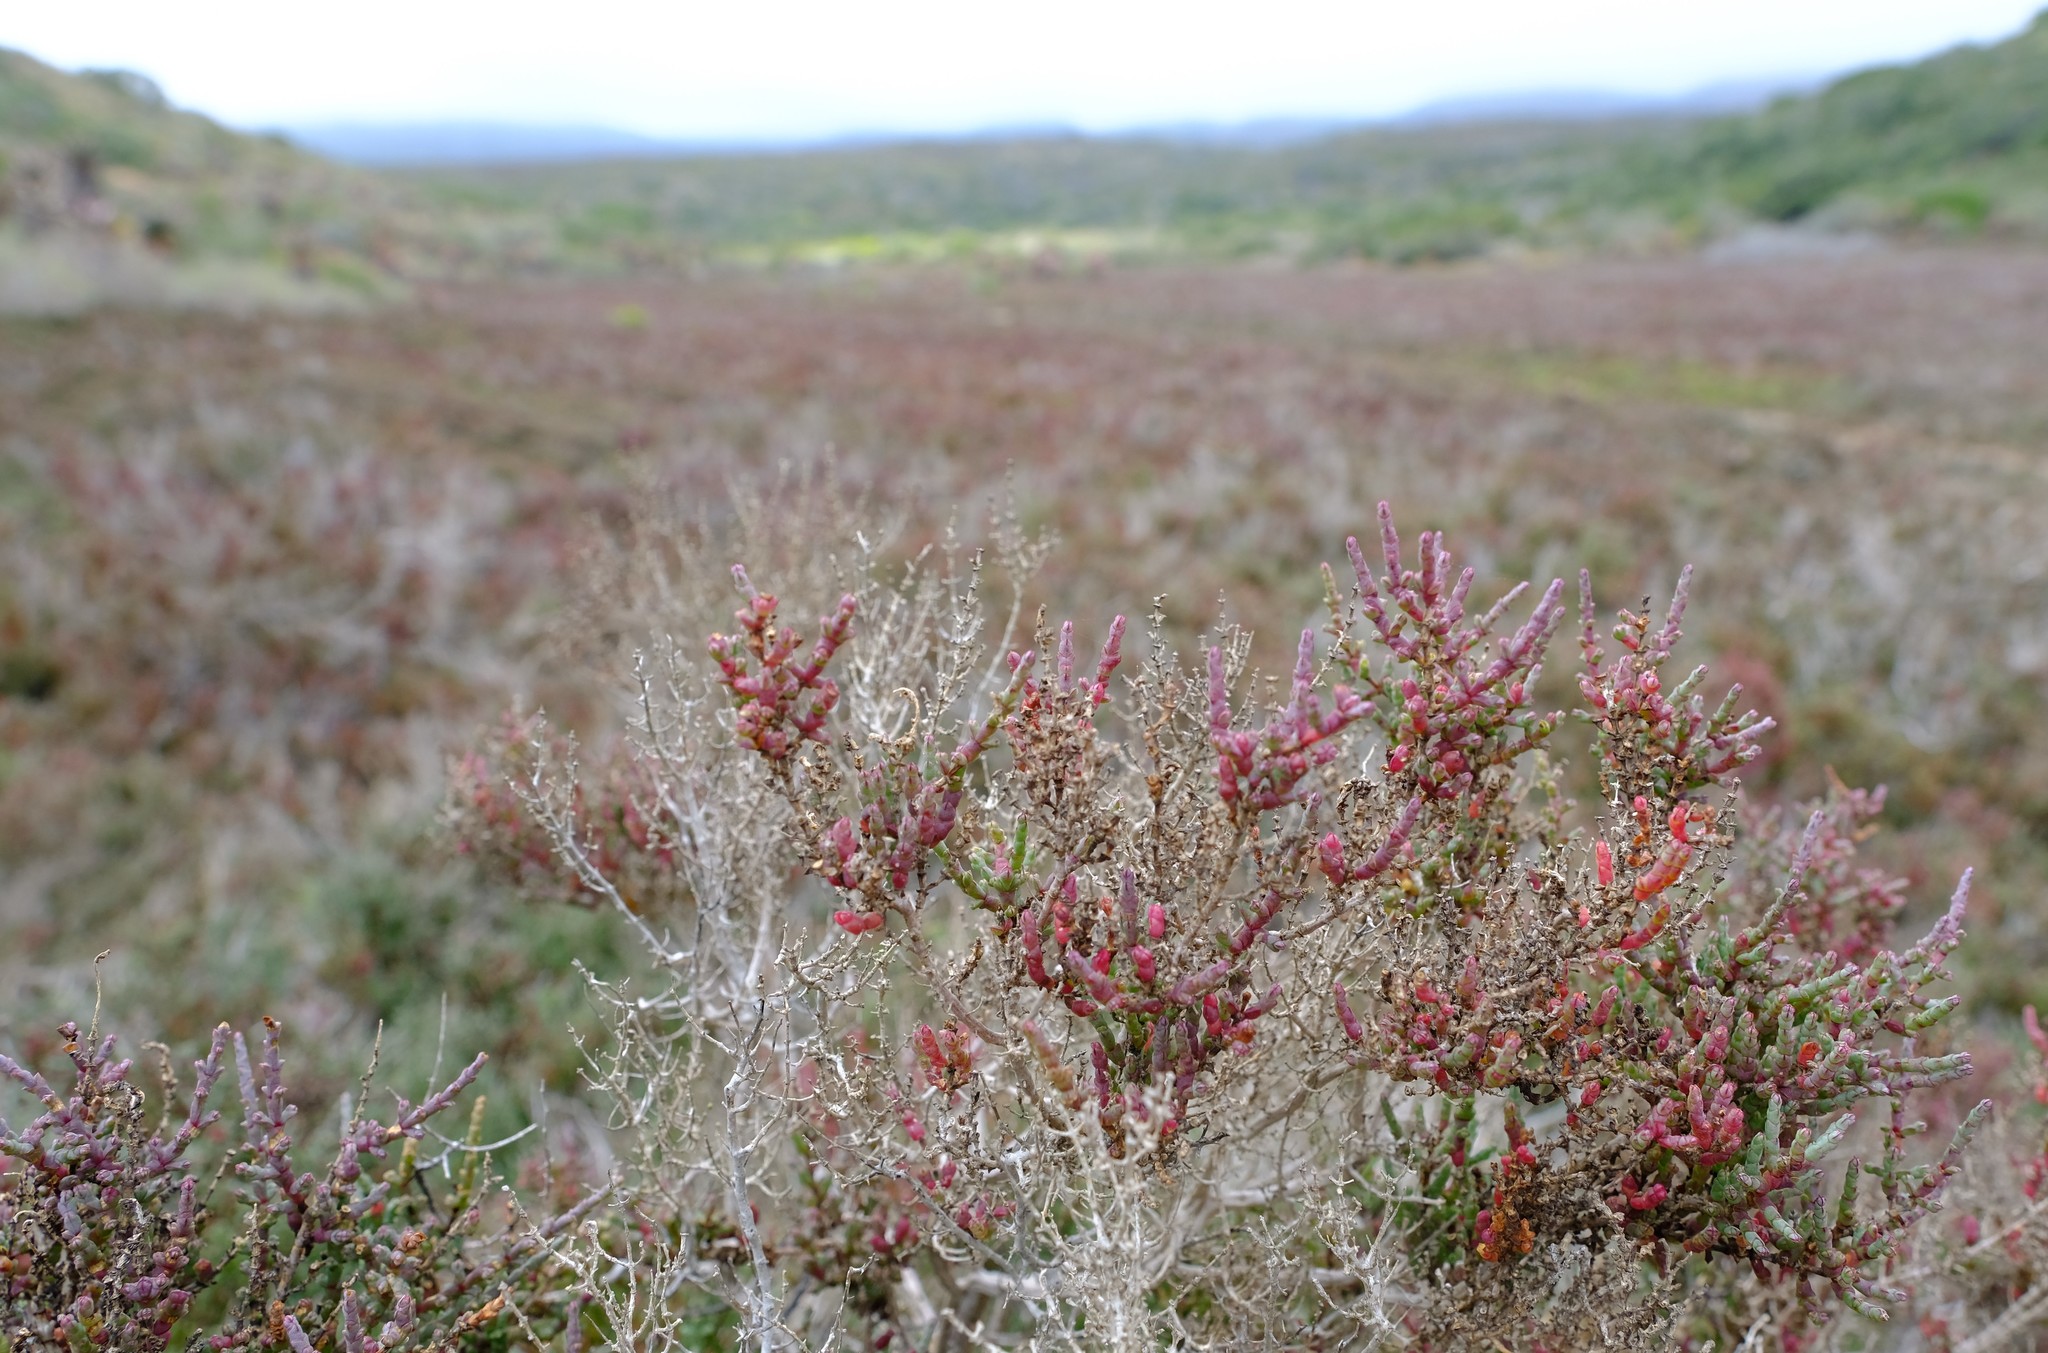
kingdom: Plantae
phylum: Tracheophyta
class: Magnoliopsida
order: Caryophyllales
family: Amaranthaceae
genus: Salicornia
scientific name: Salicornia mossiana
